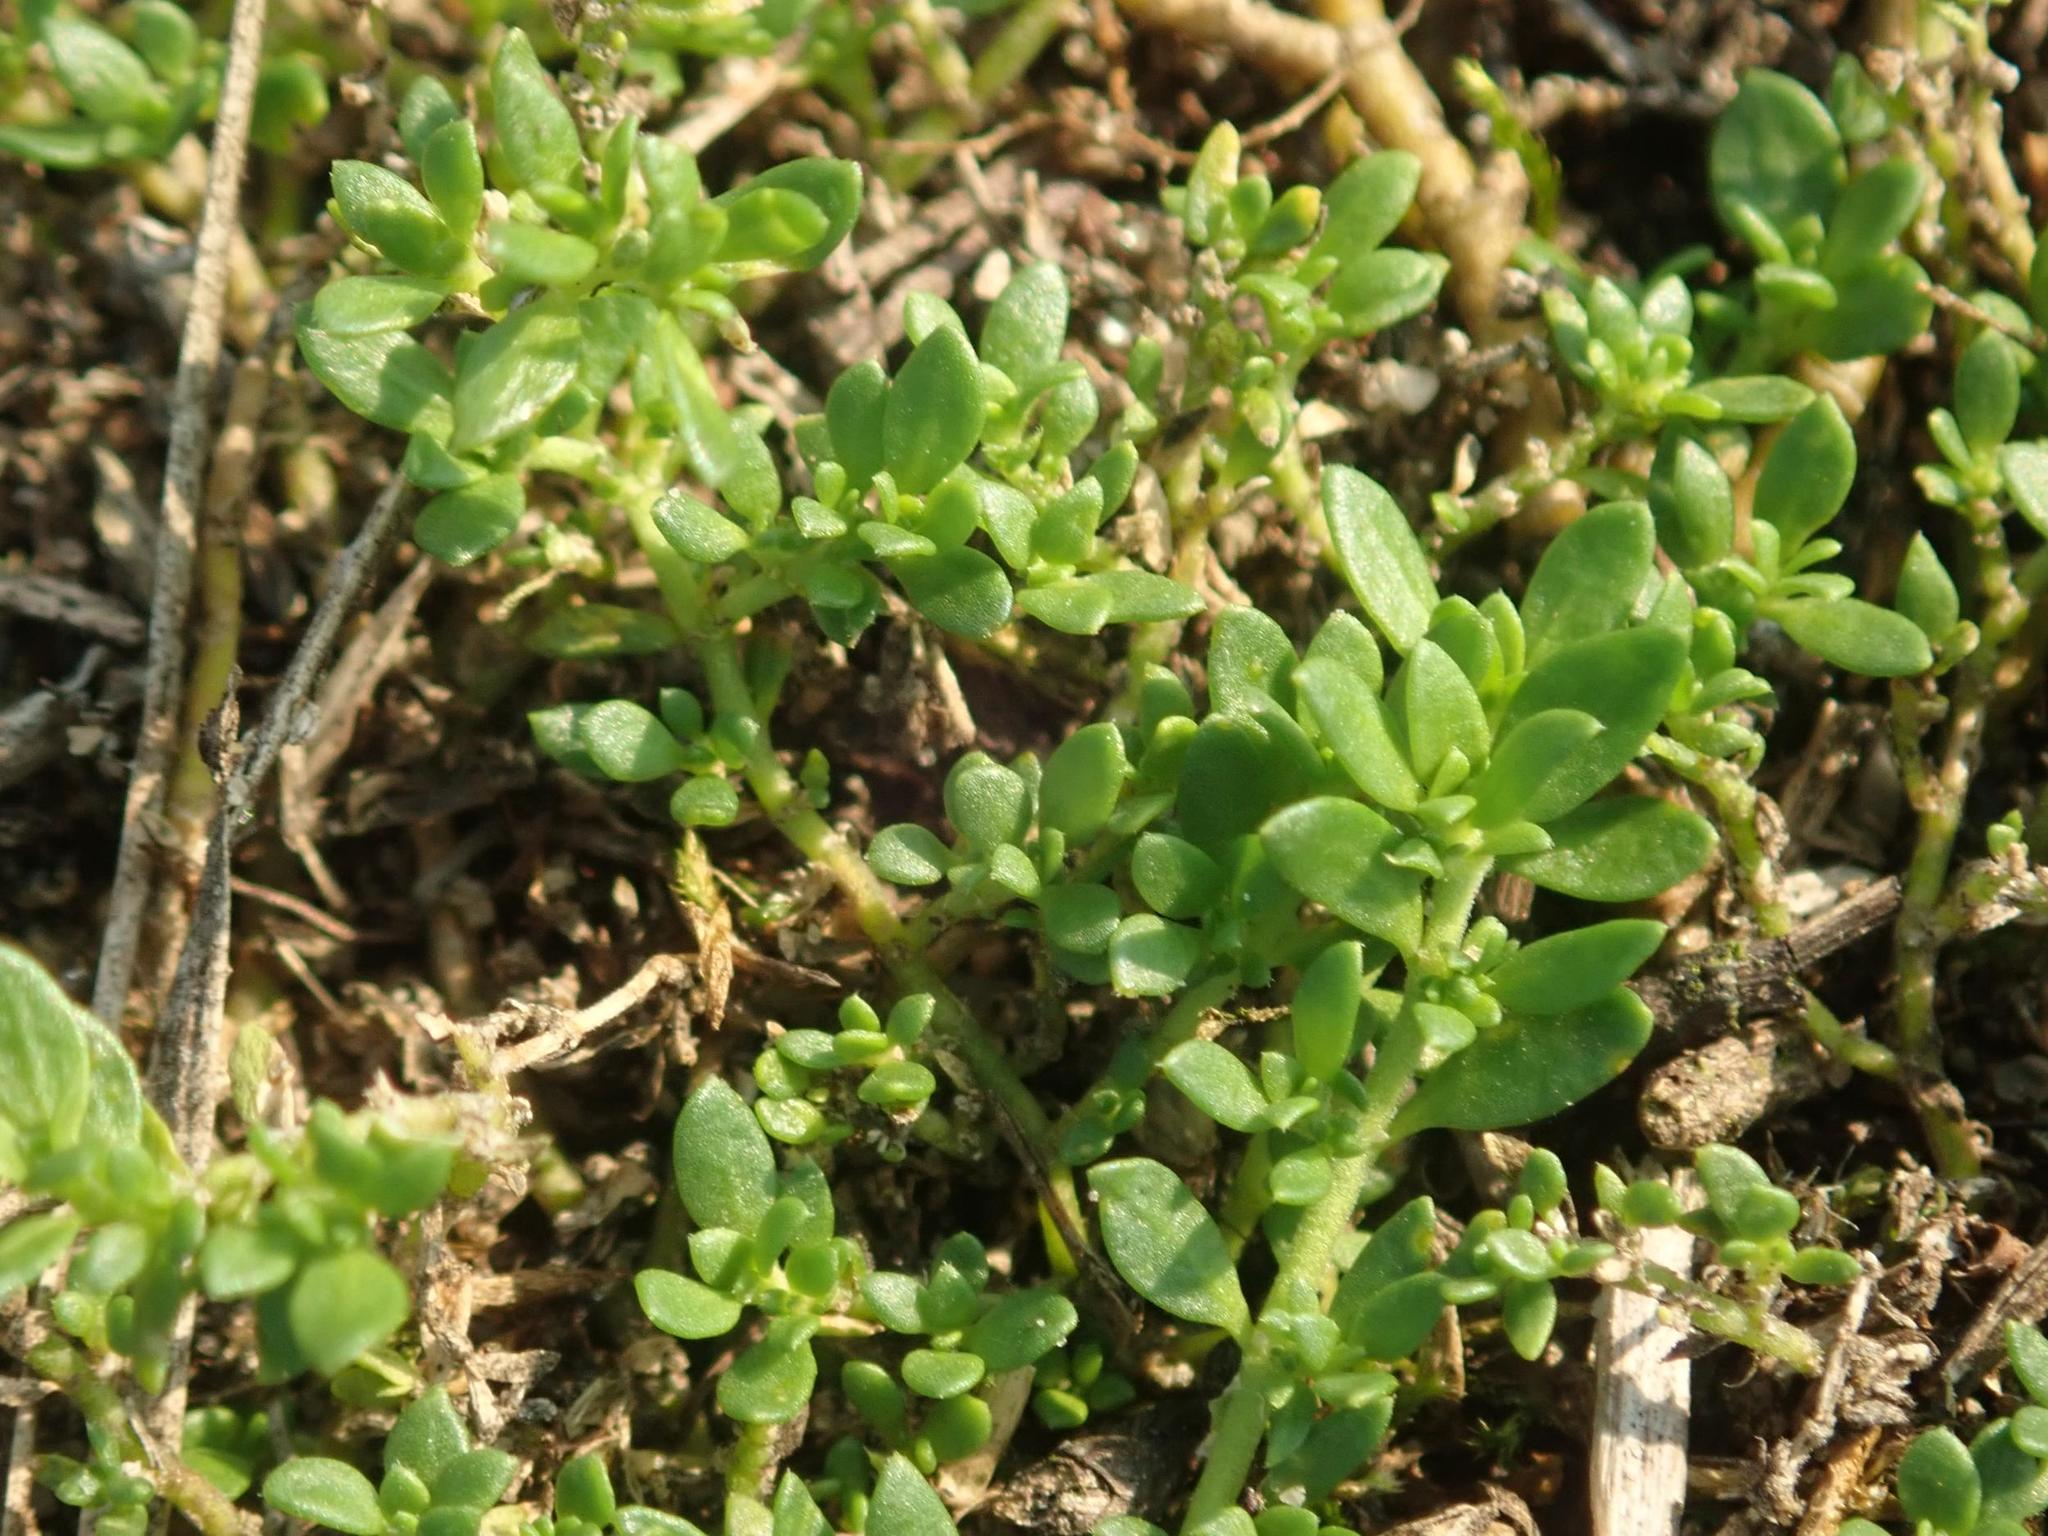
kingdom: Plantae
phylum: Tracheophyta
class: Magnoliopsida
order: Caryophyllales
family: Caryophyllaceae
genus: Herniaria
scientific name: Herniaria glabra
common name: Smooth rupturewort
